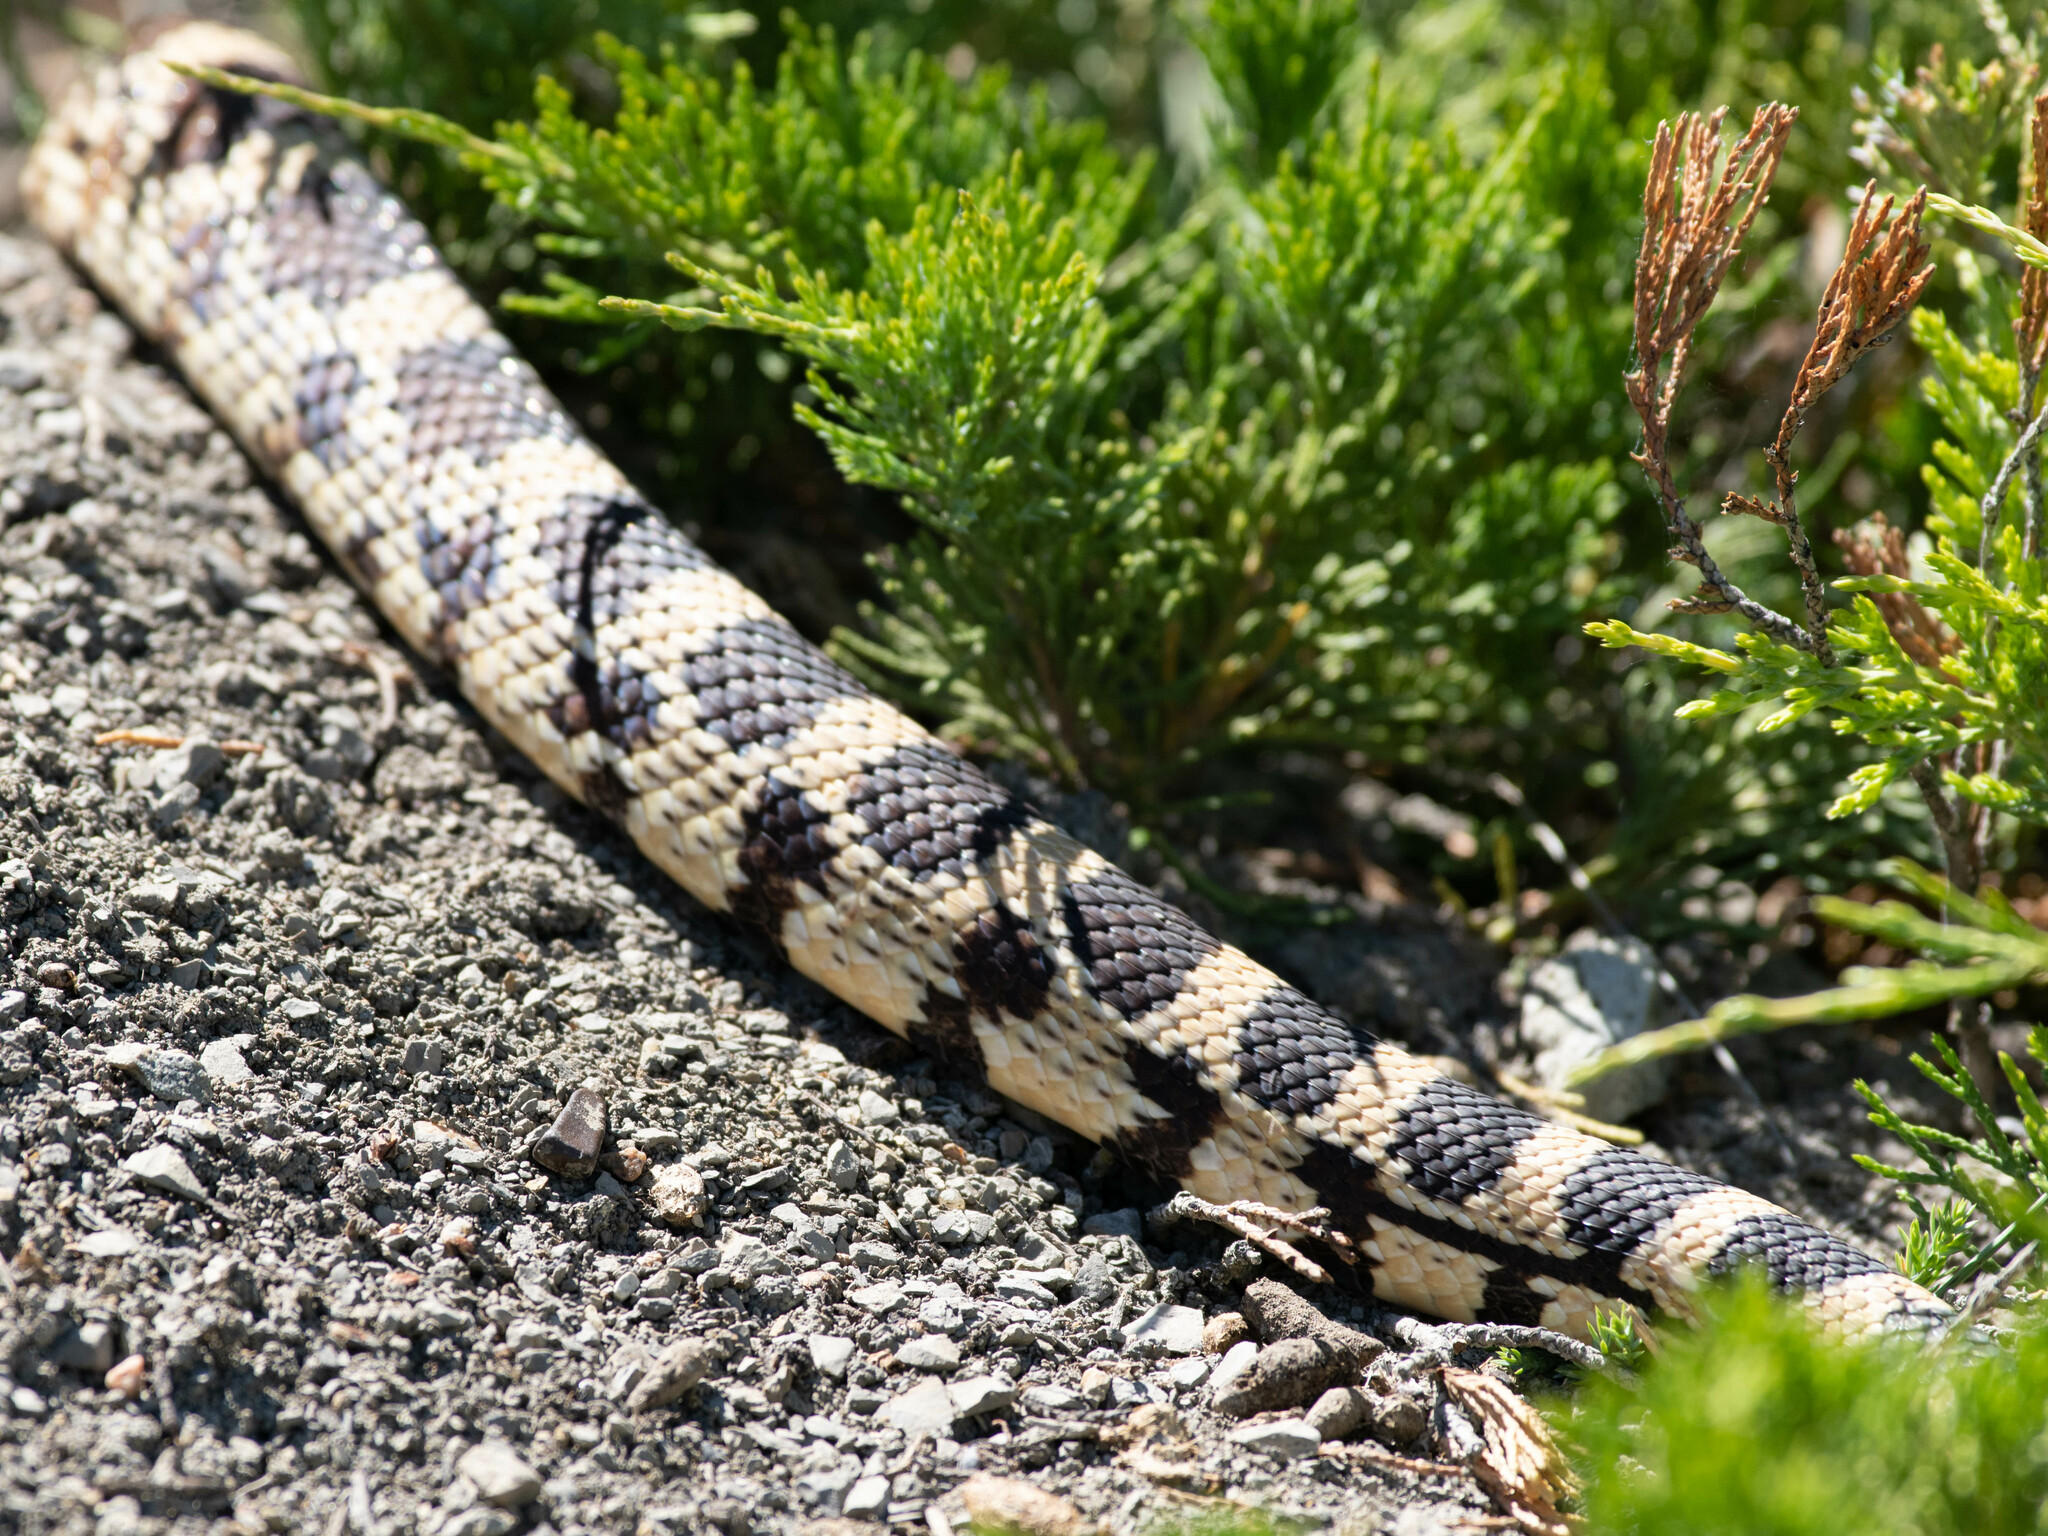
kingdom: Animalia
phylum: Chordata
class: Squamata
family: Colubridae
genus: Pituophis
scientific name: Pituophis catenifer
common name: Gopher snake
